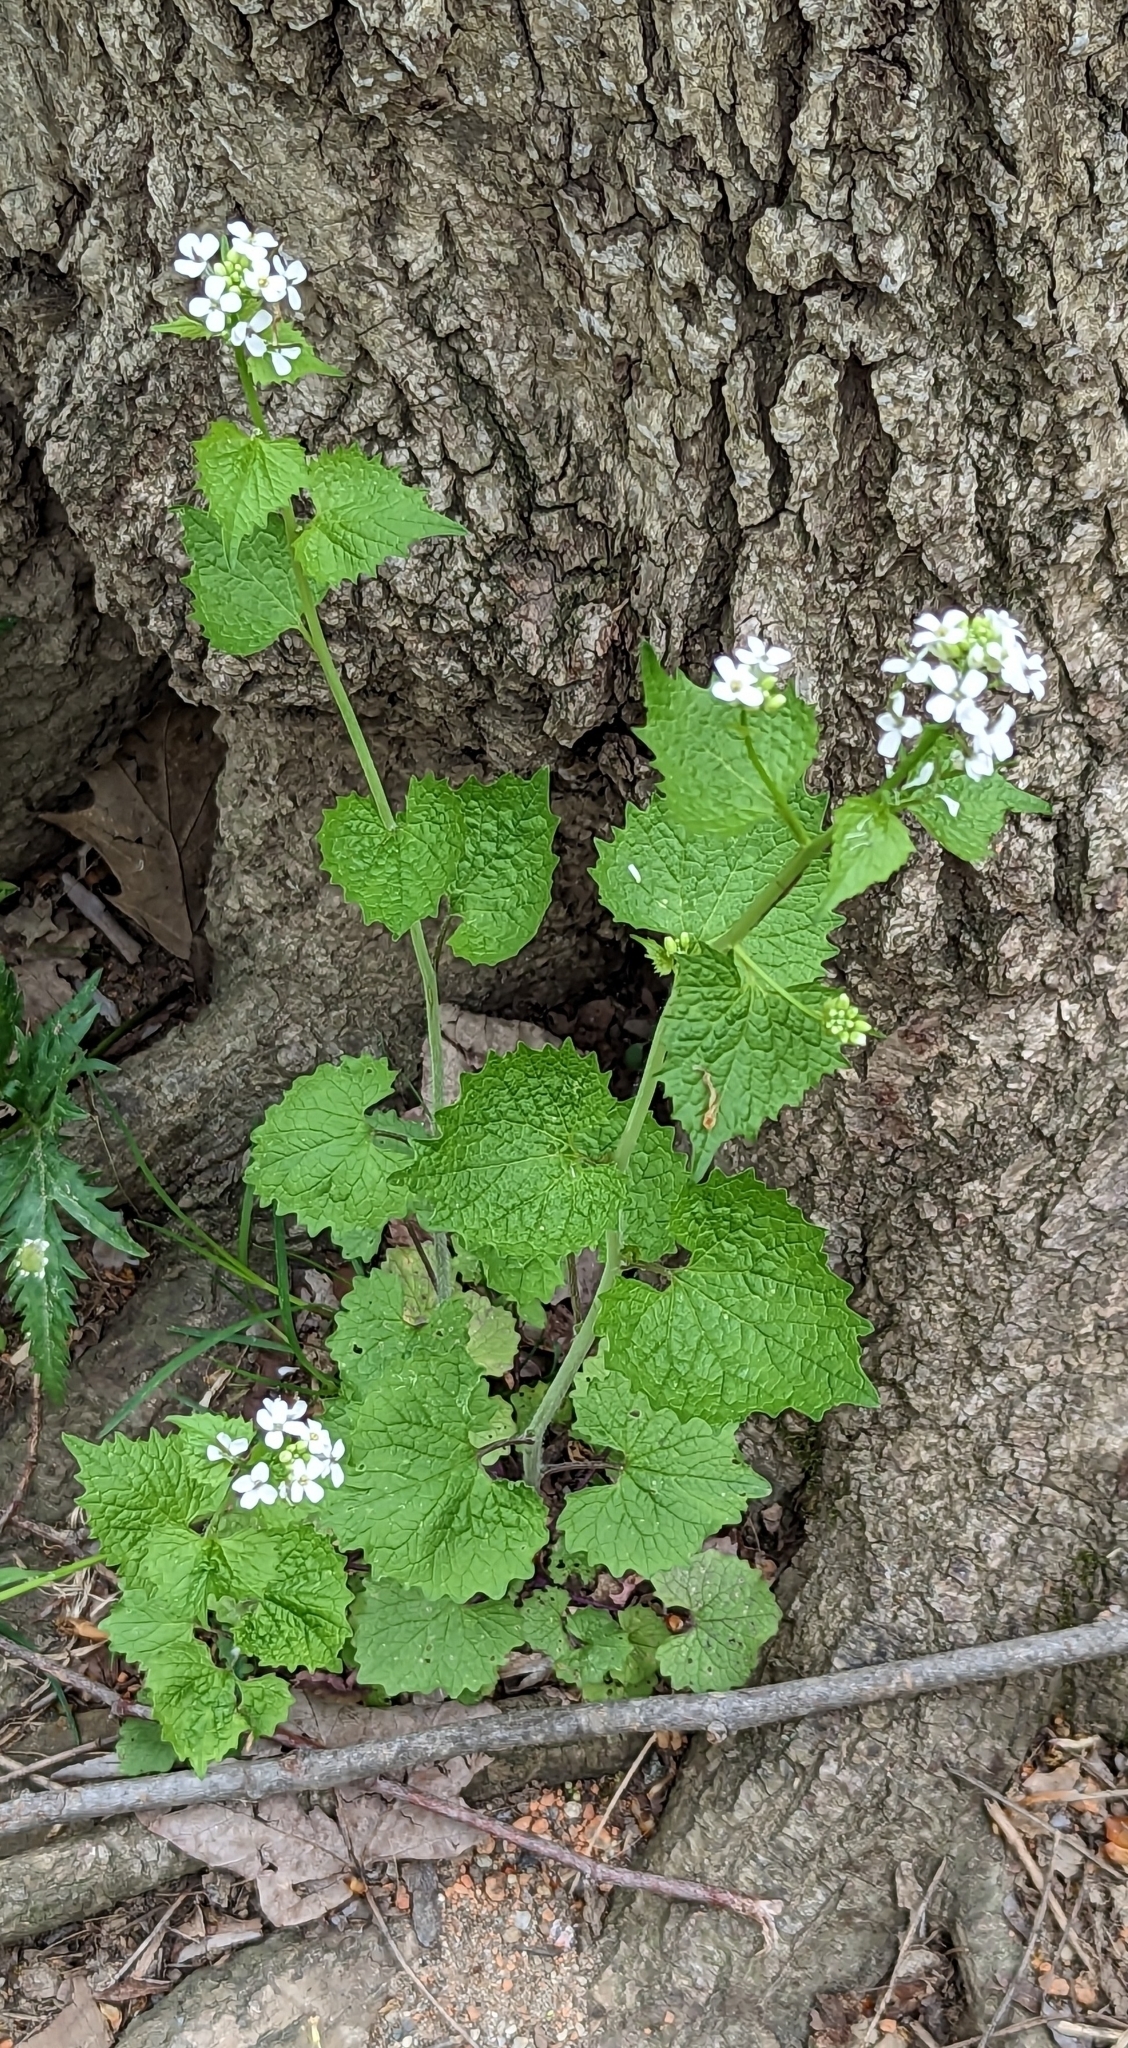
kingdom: Plantae
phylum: Tracheophyta
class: Magnoliopsida
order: Brassicales
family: Brassicaceae
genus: Alliaria
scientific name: Alliaria petiolata
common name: Garlic mustard
